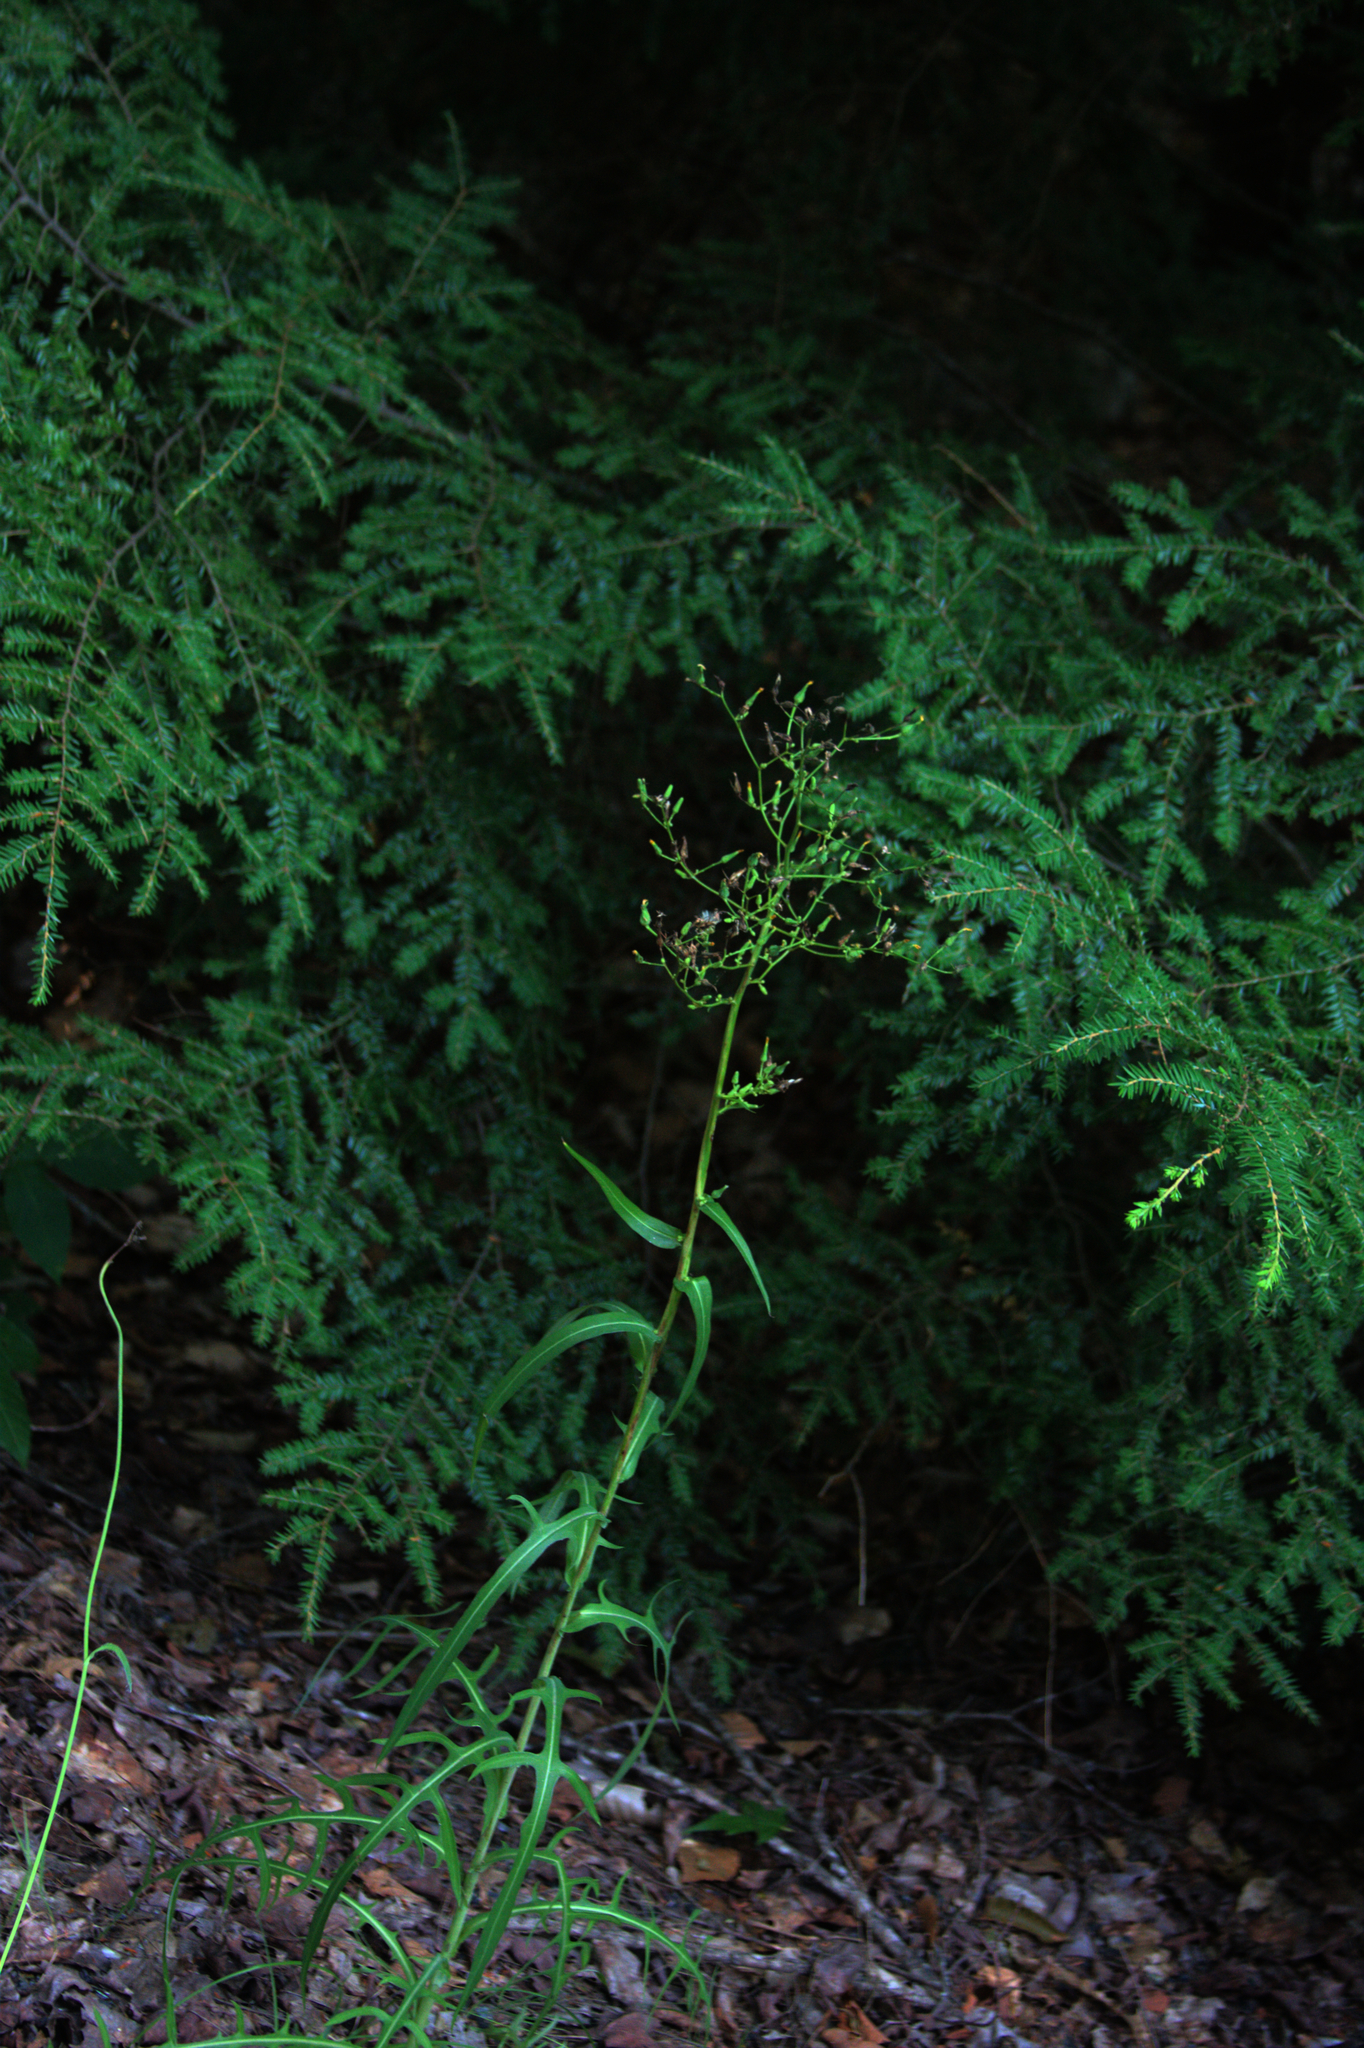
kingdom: Plantae
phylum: Tracheophyta
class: Pinopsida
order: Pinales
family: Pinaceae
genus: Tsuga
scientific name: Tsuga canadensis
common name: Eastern hemlock
